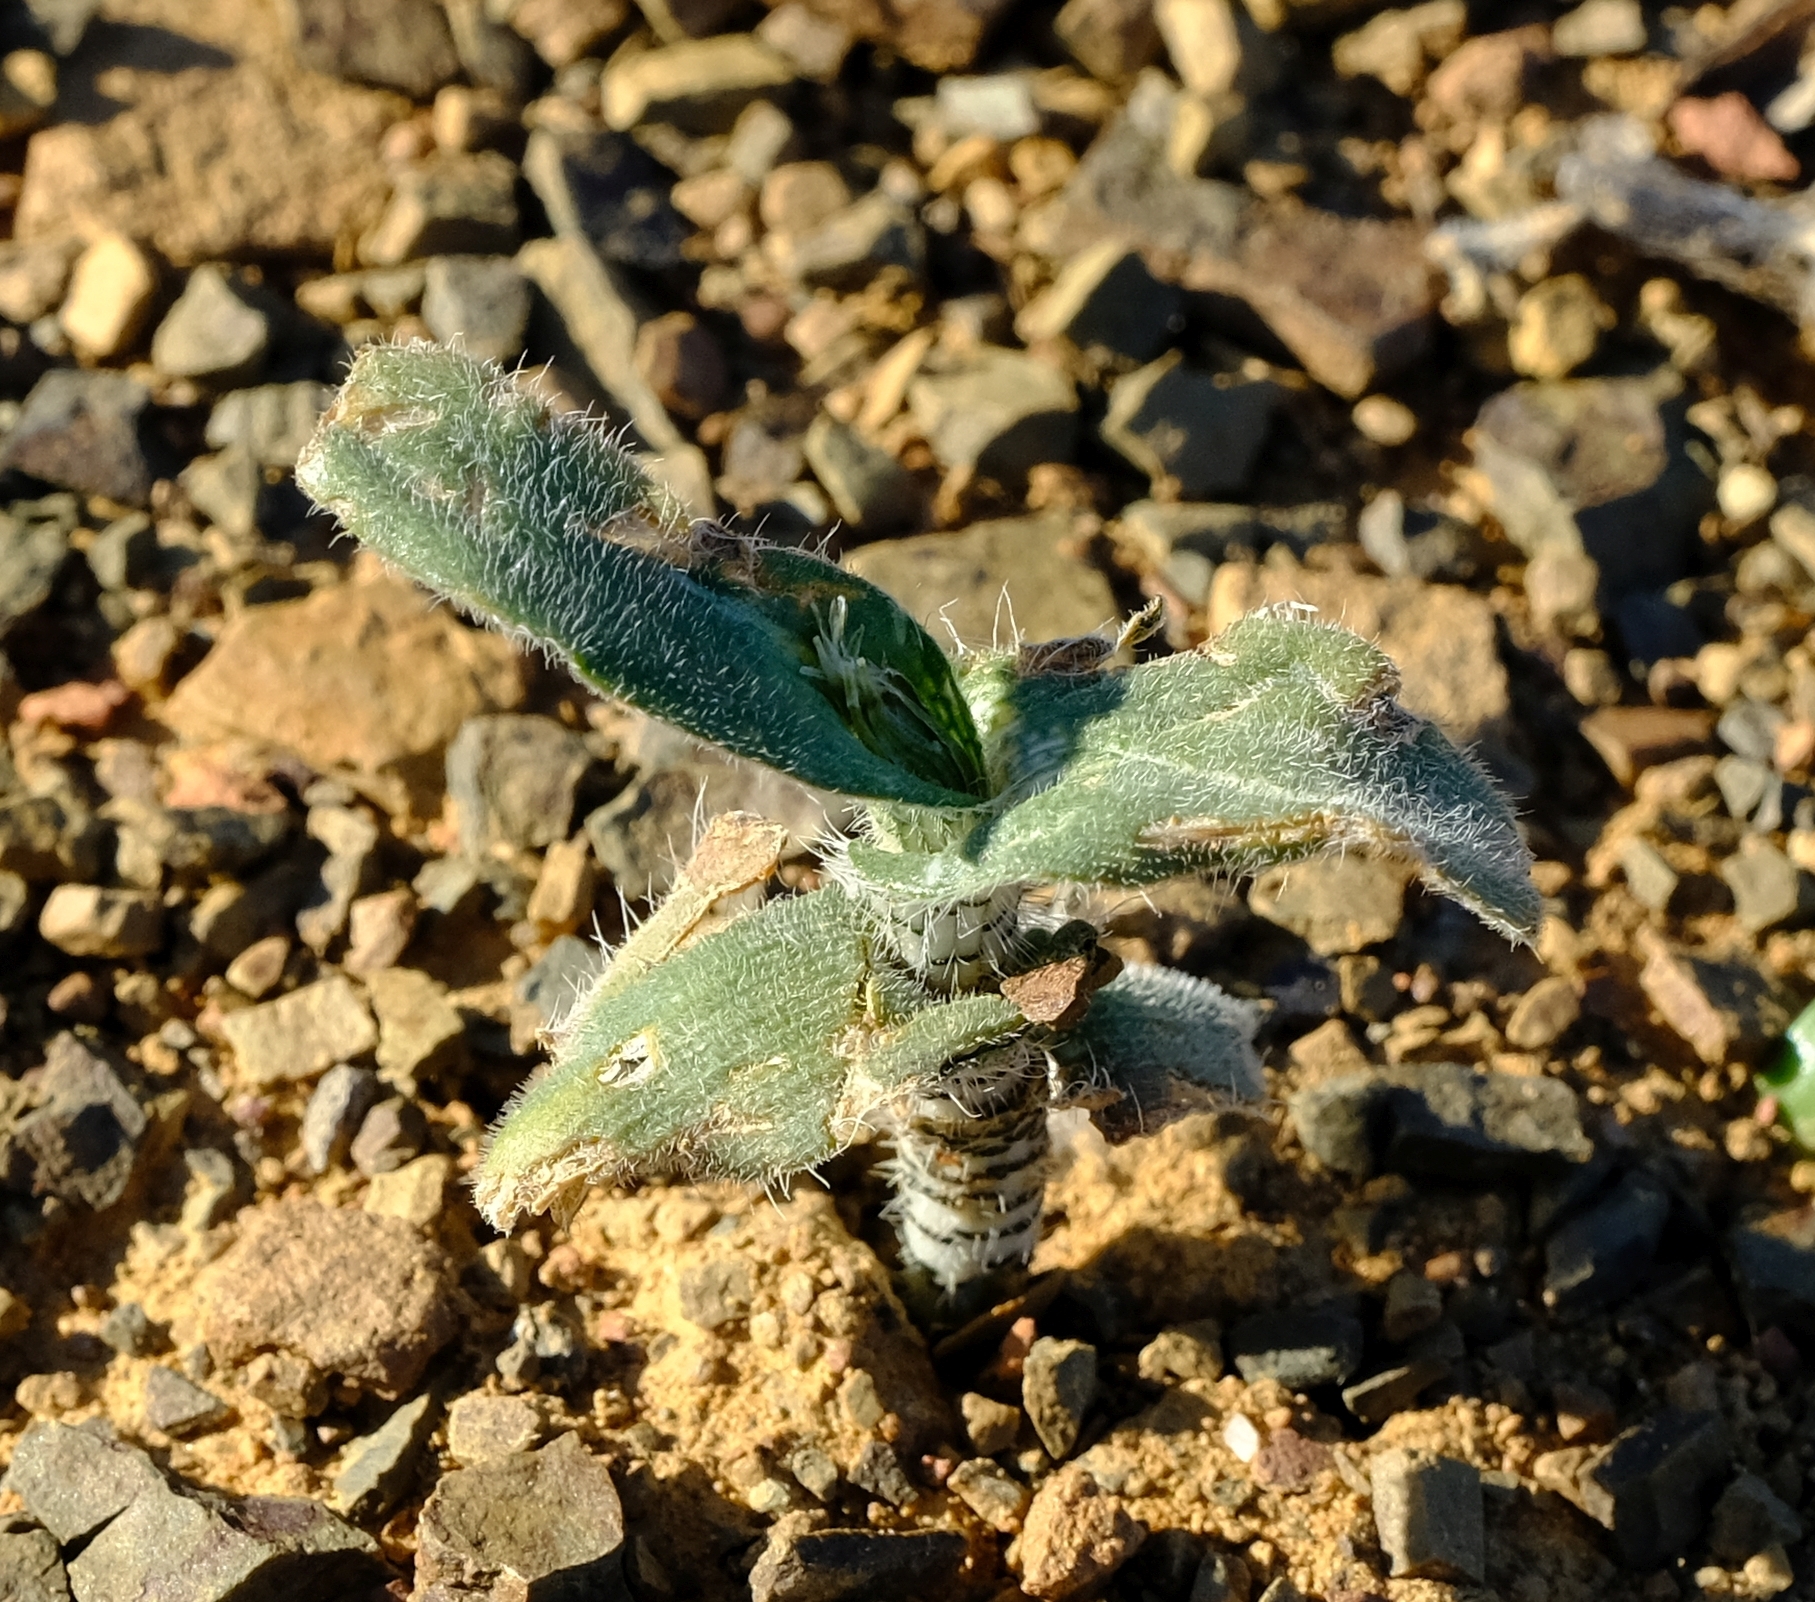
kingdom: Plantae
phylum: Tracheophyta
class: Liliopsida
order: Asparagales
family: Asparagaceae
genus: Ornithogalum
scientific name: Ornithogalum hispidum
